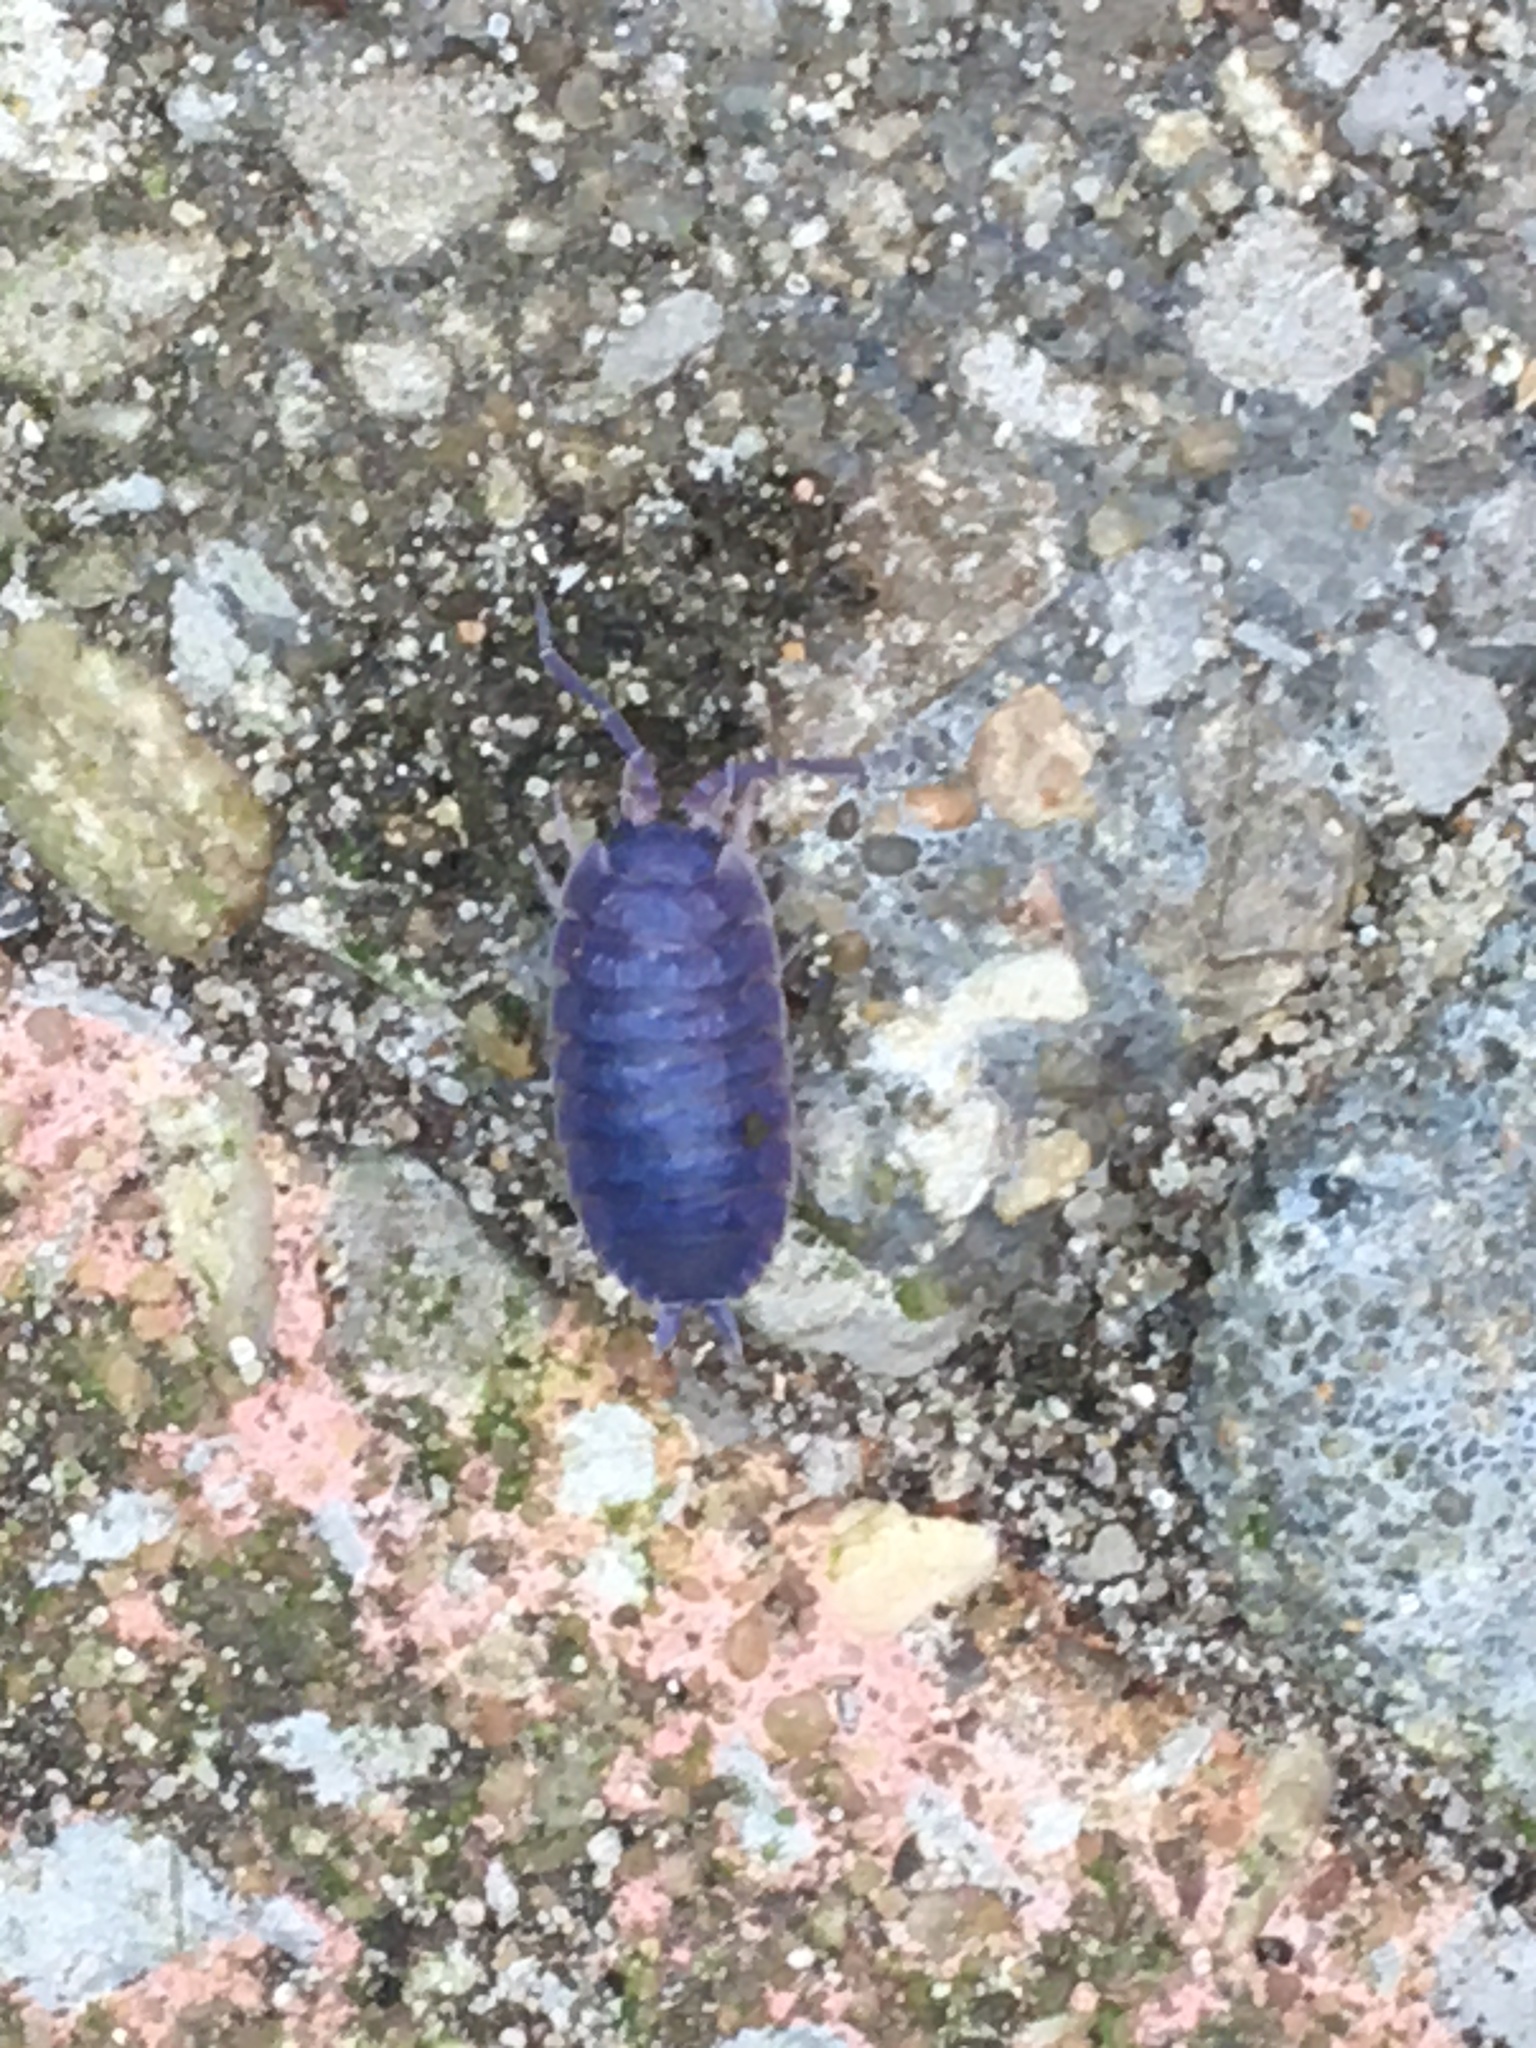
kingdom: Viruses
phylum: Nucleocytoviricota
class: Megaviricetes
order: Pimascovirales
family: Iridoviridae
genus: Iridovirus
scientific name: Iridovirus Invertebrate iridescent virus 31
